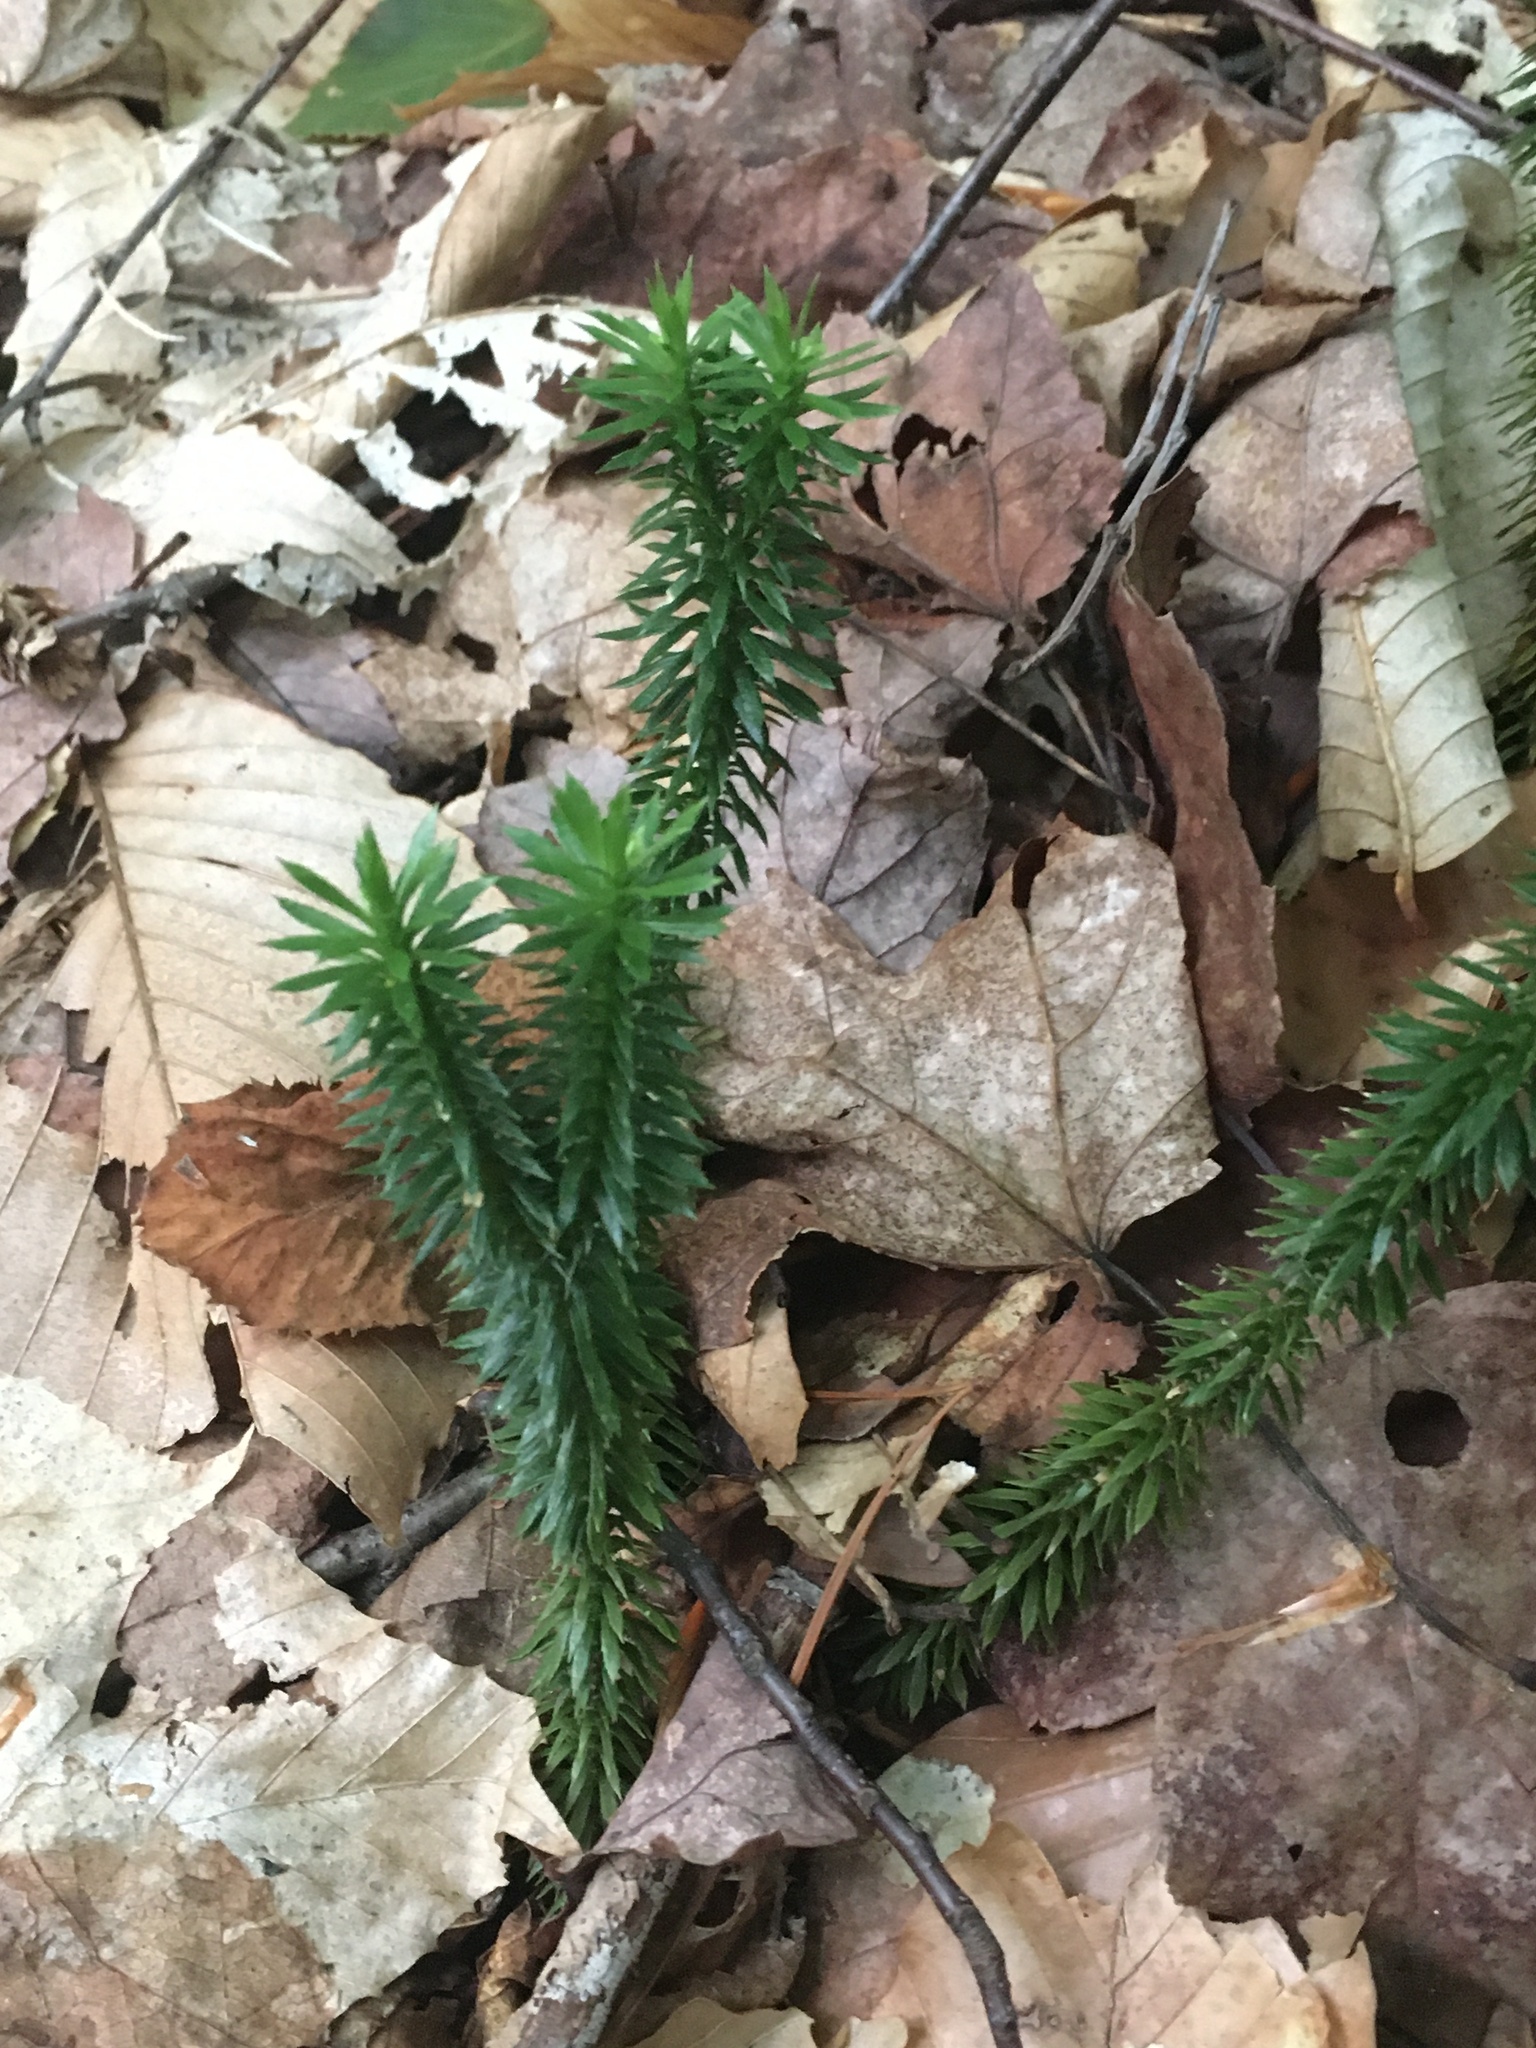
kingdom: Plantae
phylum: Tracheophyta
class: Lycopodiopsida
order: Lycopodiales
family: Lycopodiaceae
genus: Huperzia
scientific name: Huperzia lucidula
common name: Shining clubmoss
